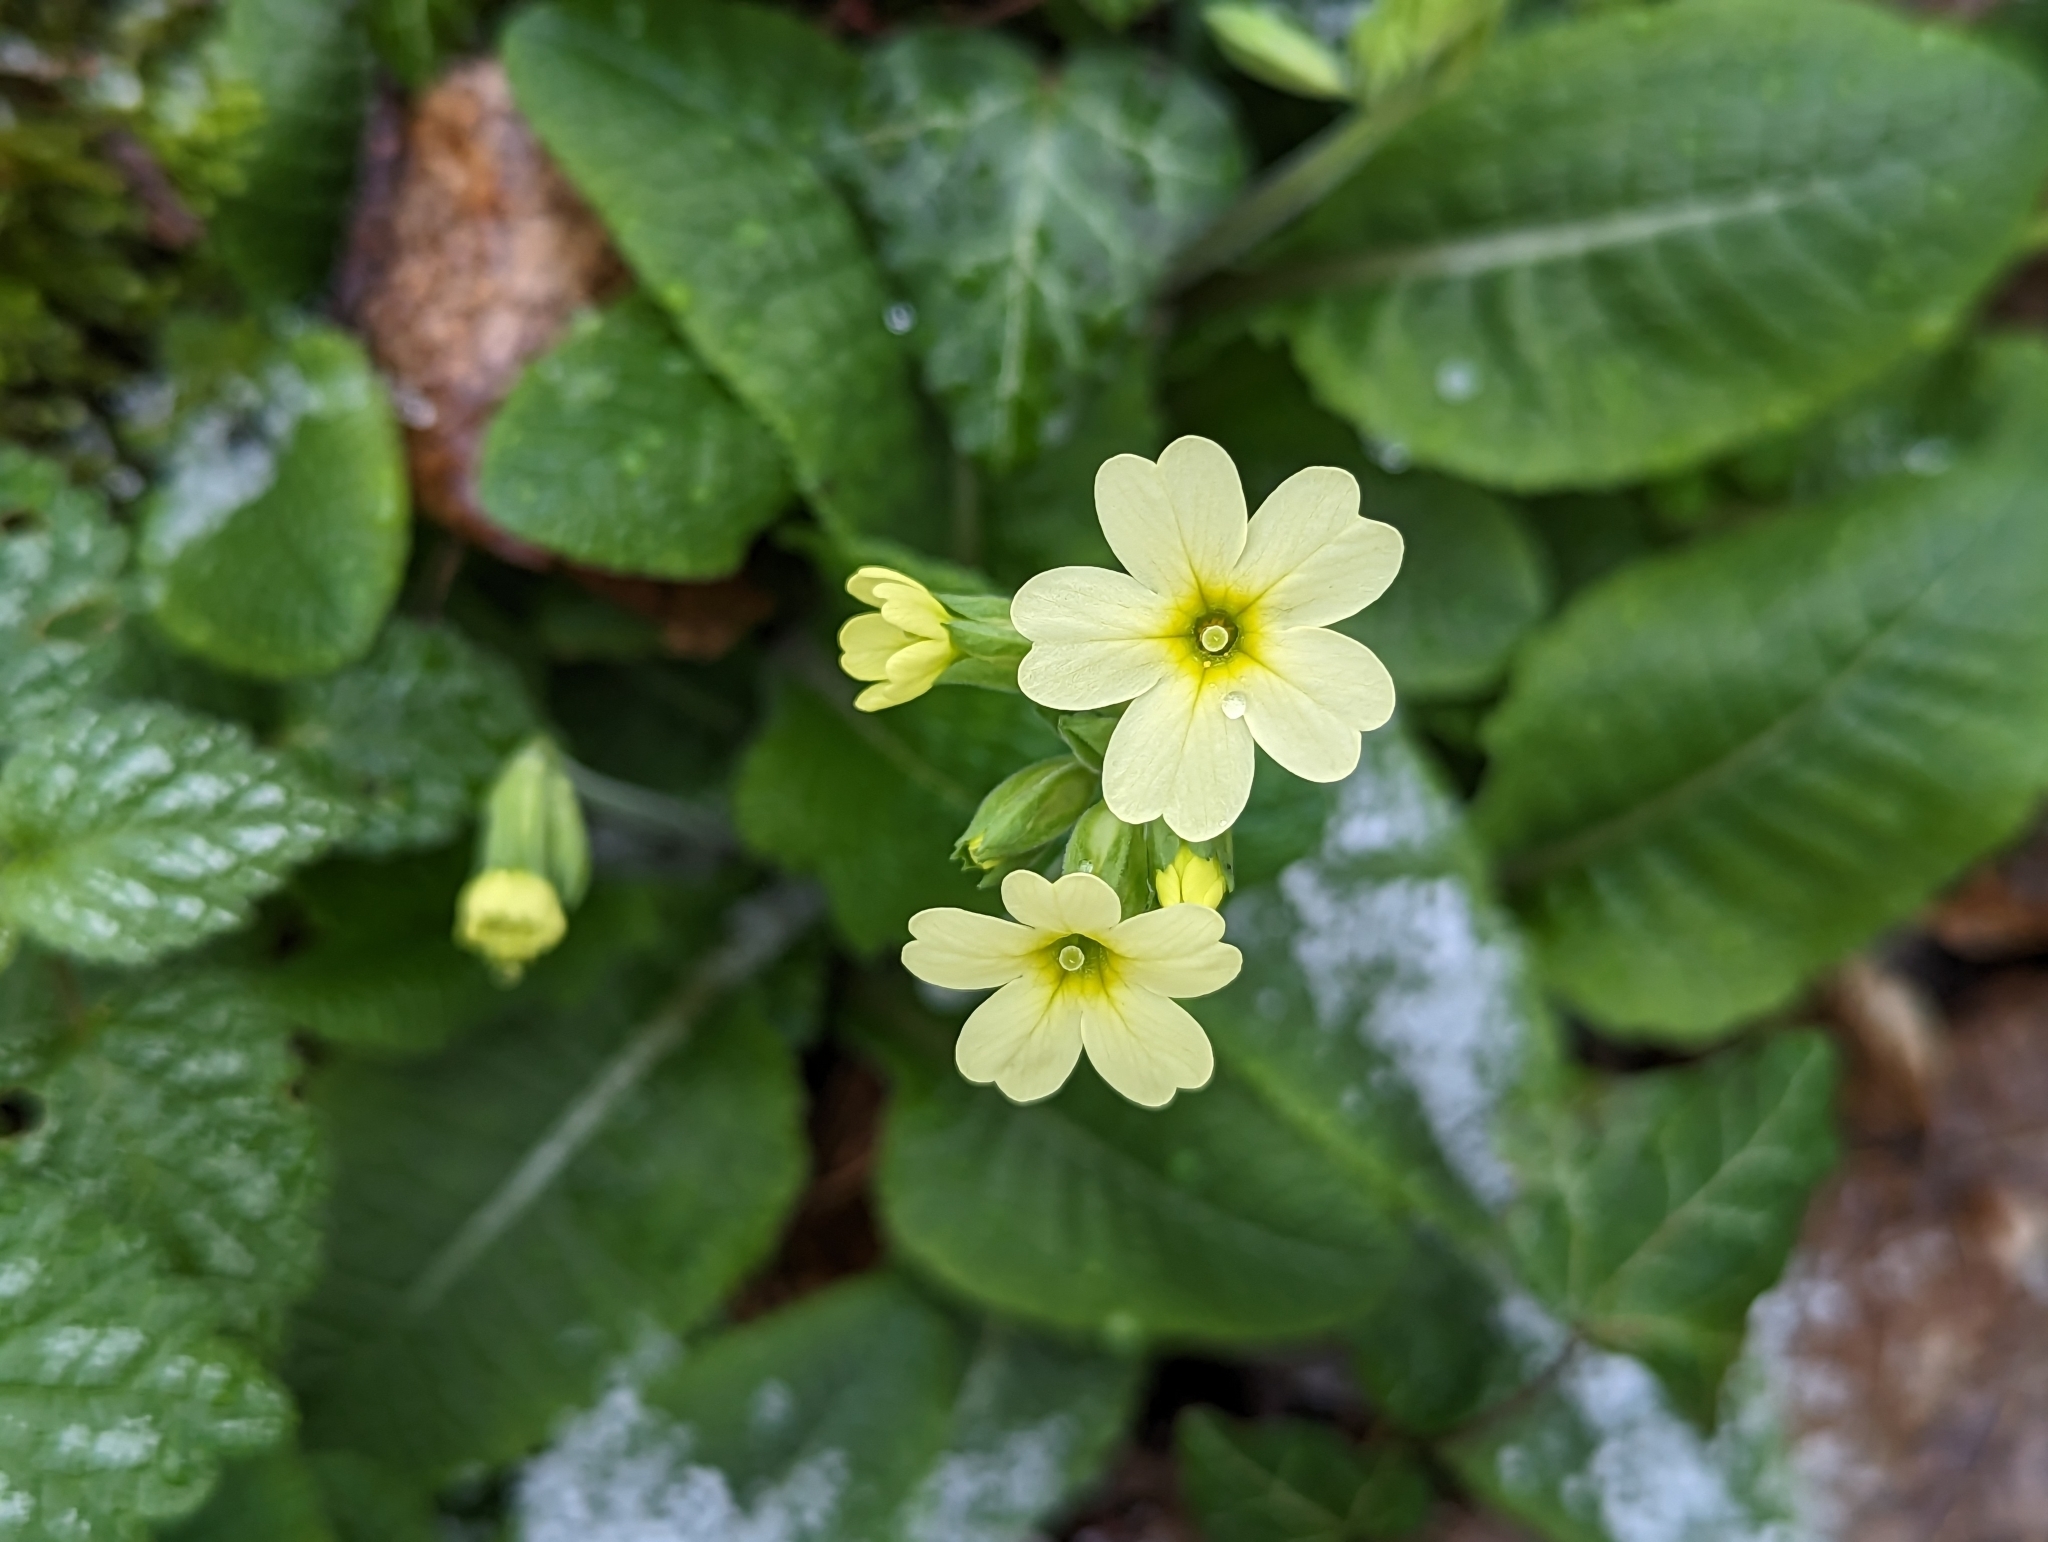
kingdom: Plantae
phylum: Tracheophyta
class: Magnoliopsida
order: Ericales
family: Primulaceae
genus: Primula
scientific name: Primula elatior
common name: Oxlip
